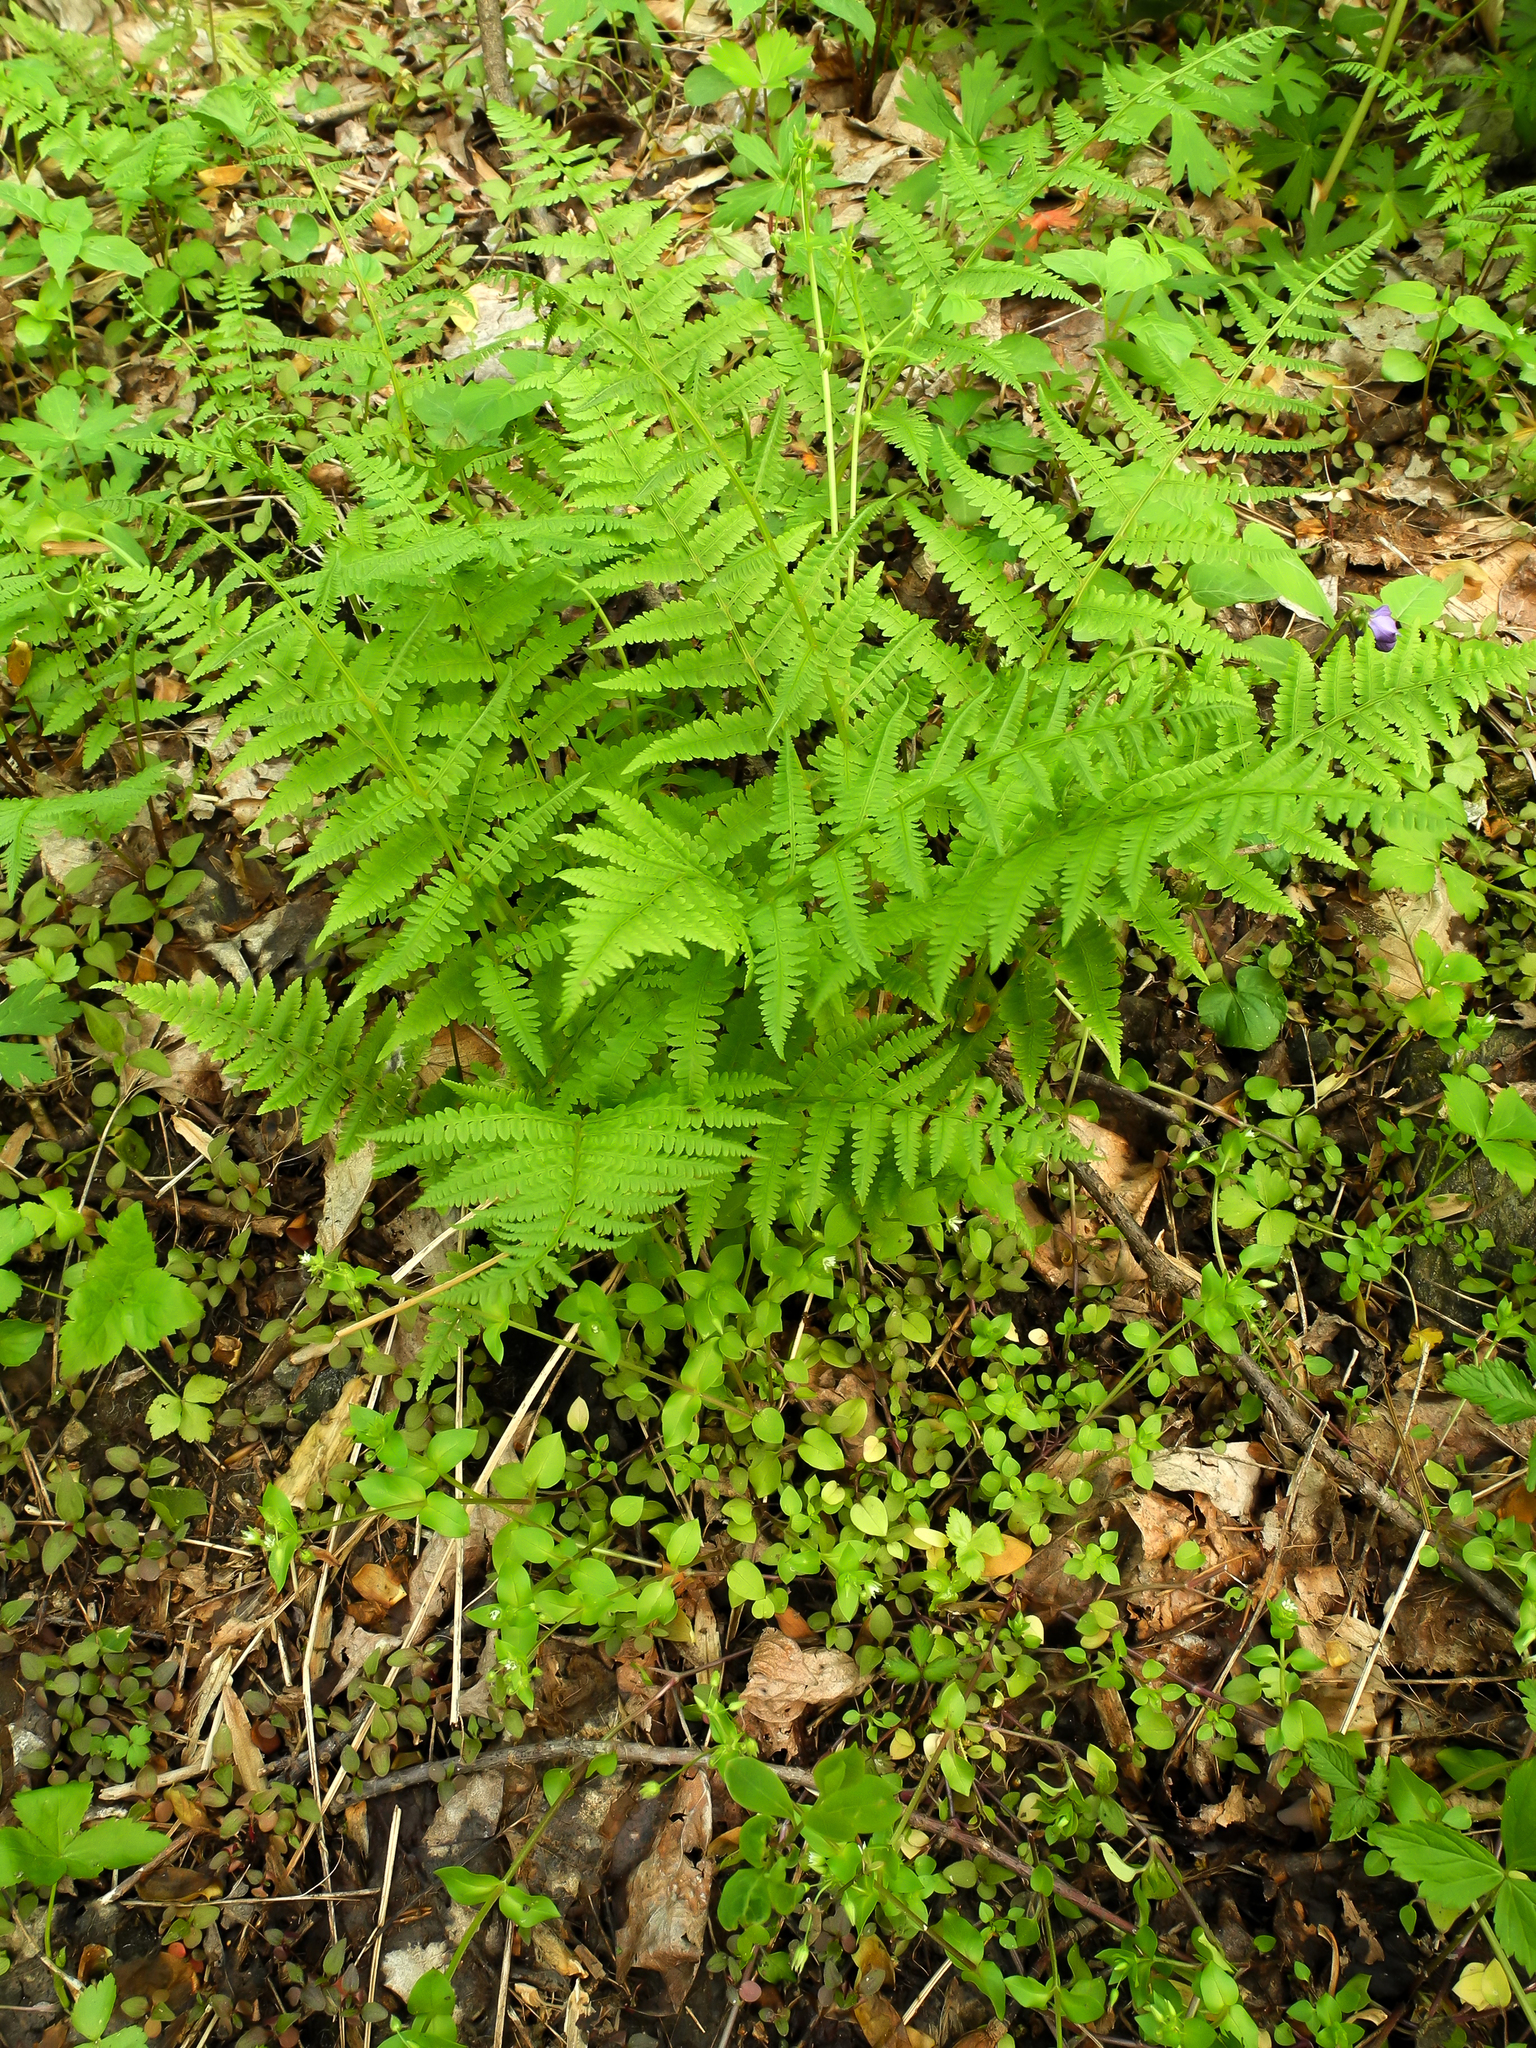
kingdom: Plantae
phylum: Tracheophyta
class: Polypodiopsida
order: Polypodiales
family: Athyriaceae
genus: Athyrium
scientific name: Athyrium angustum
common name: Northern lady fern
